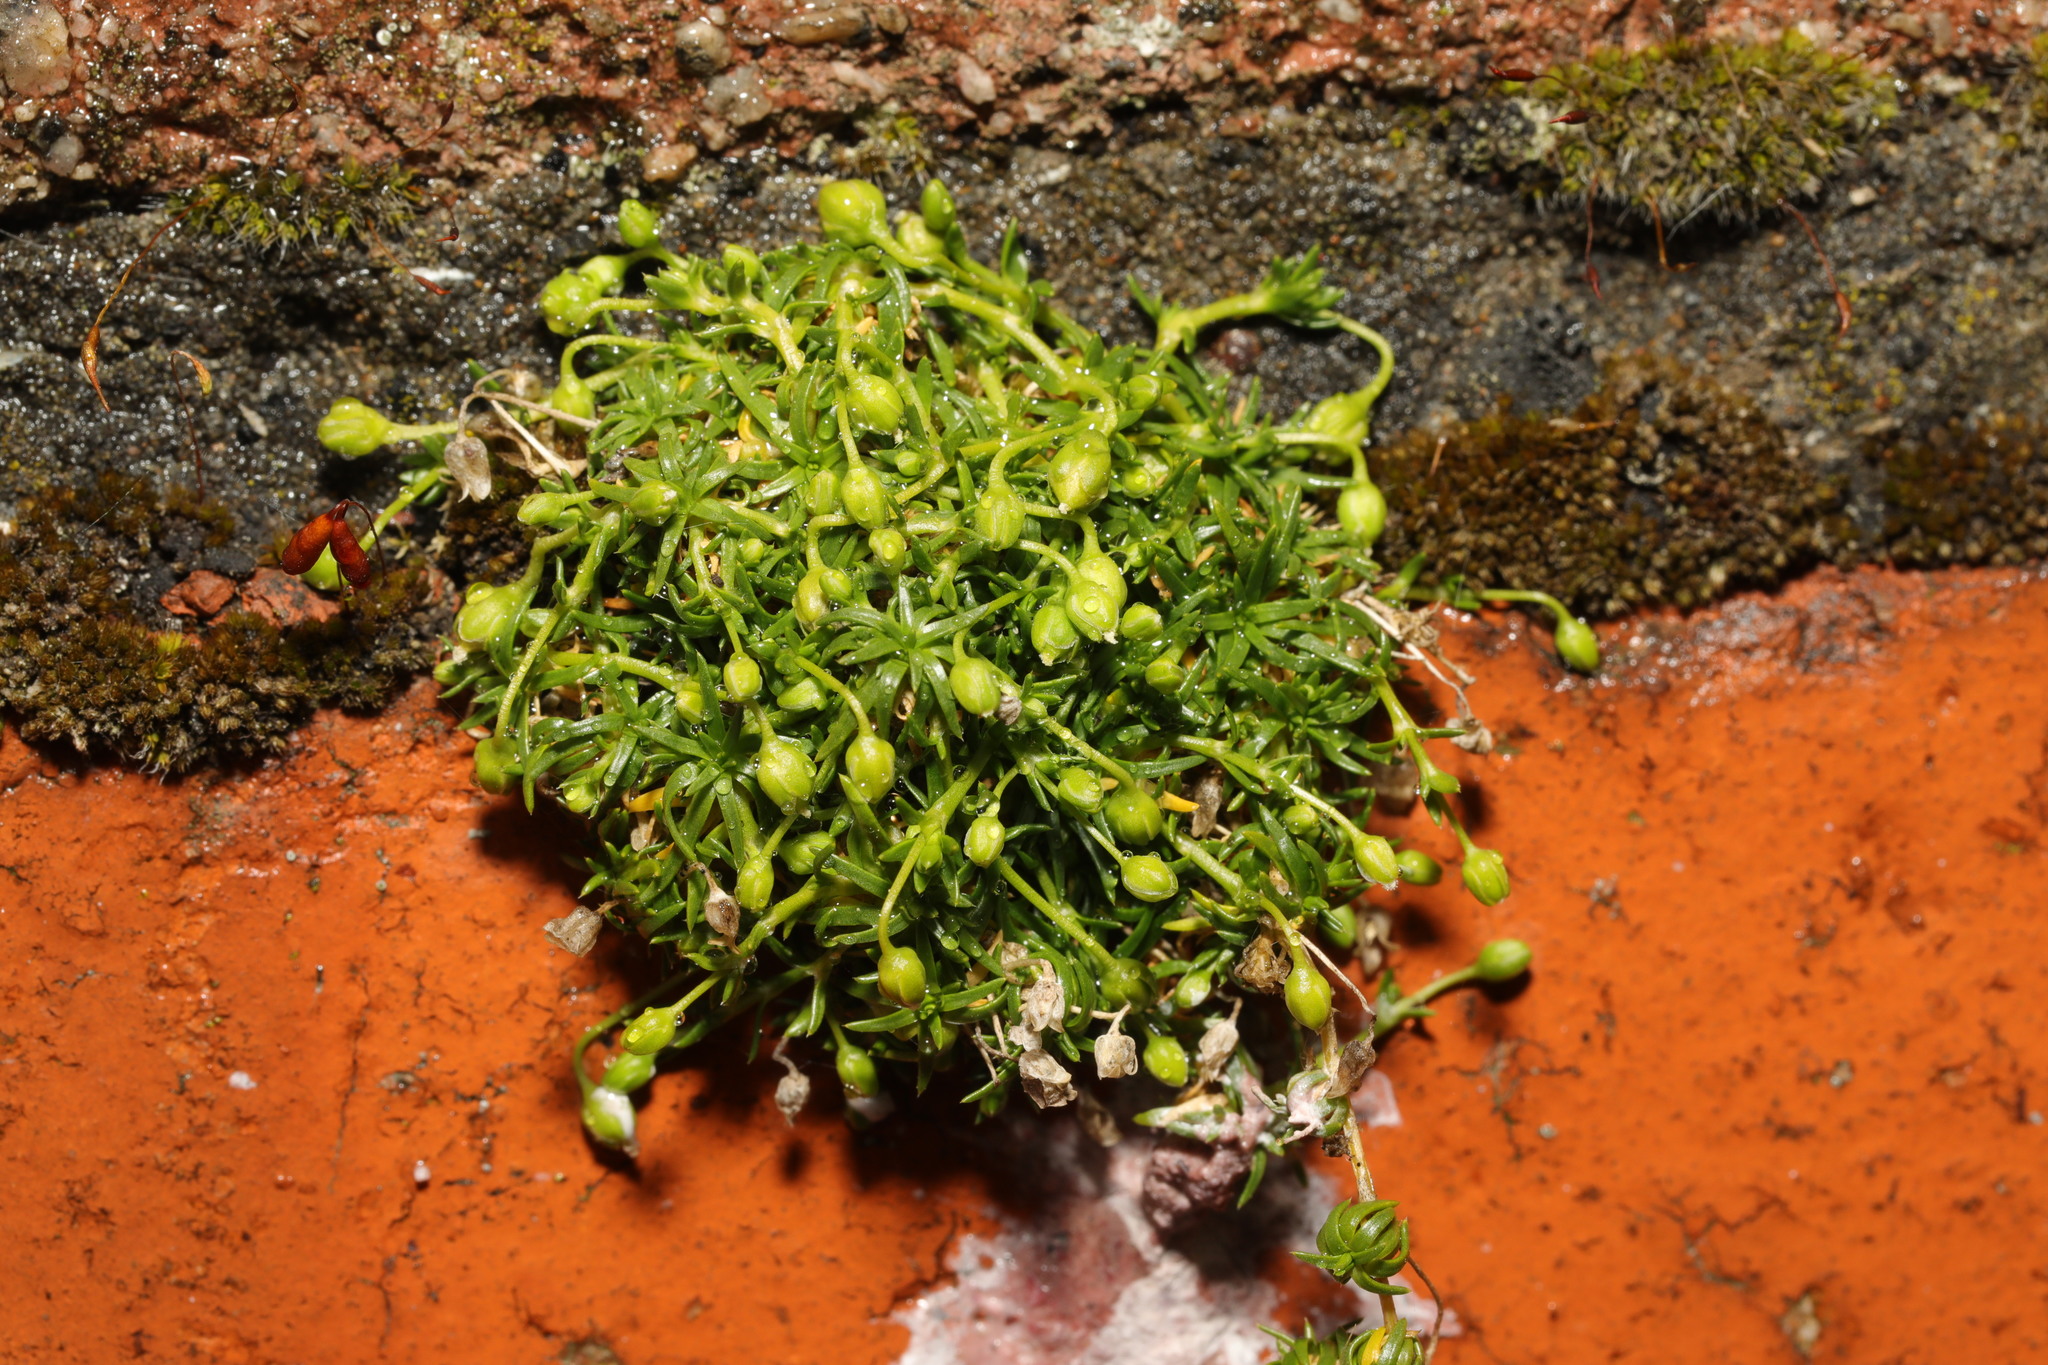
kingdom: Plantae
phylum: Tracheophyta
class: Magnoliopsida
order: Caryophyllales
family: Caryophyllaceae
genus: Sagina
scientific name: Sagina procumbens
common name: Procumbent pearlwort
